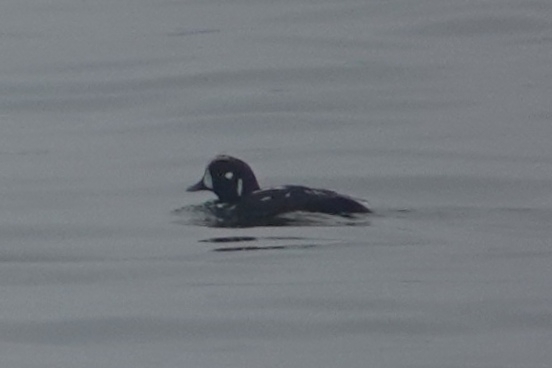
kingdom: Animalia
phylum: Chordata
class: Aves
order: Anseriformes
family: Anatidae
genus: Histrionicus
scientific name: Histrionicus histrionicus
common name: Harlequin duck
